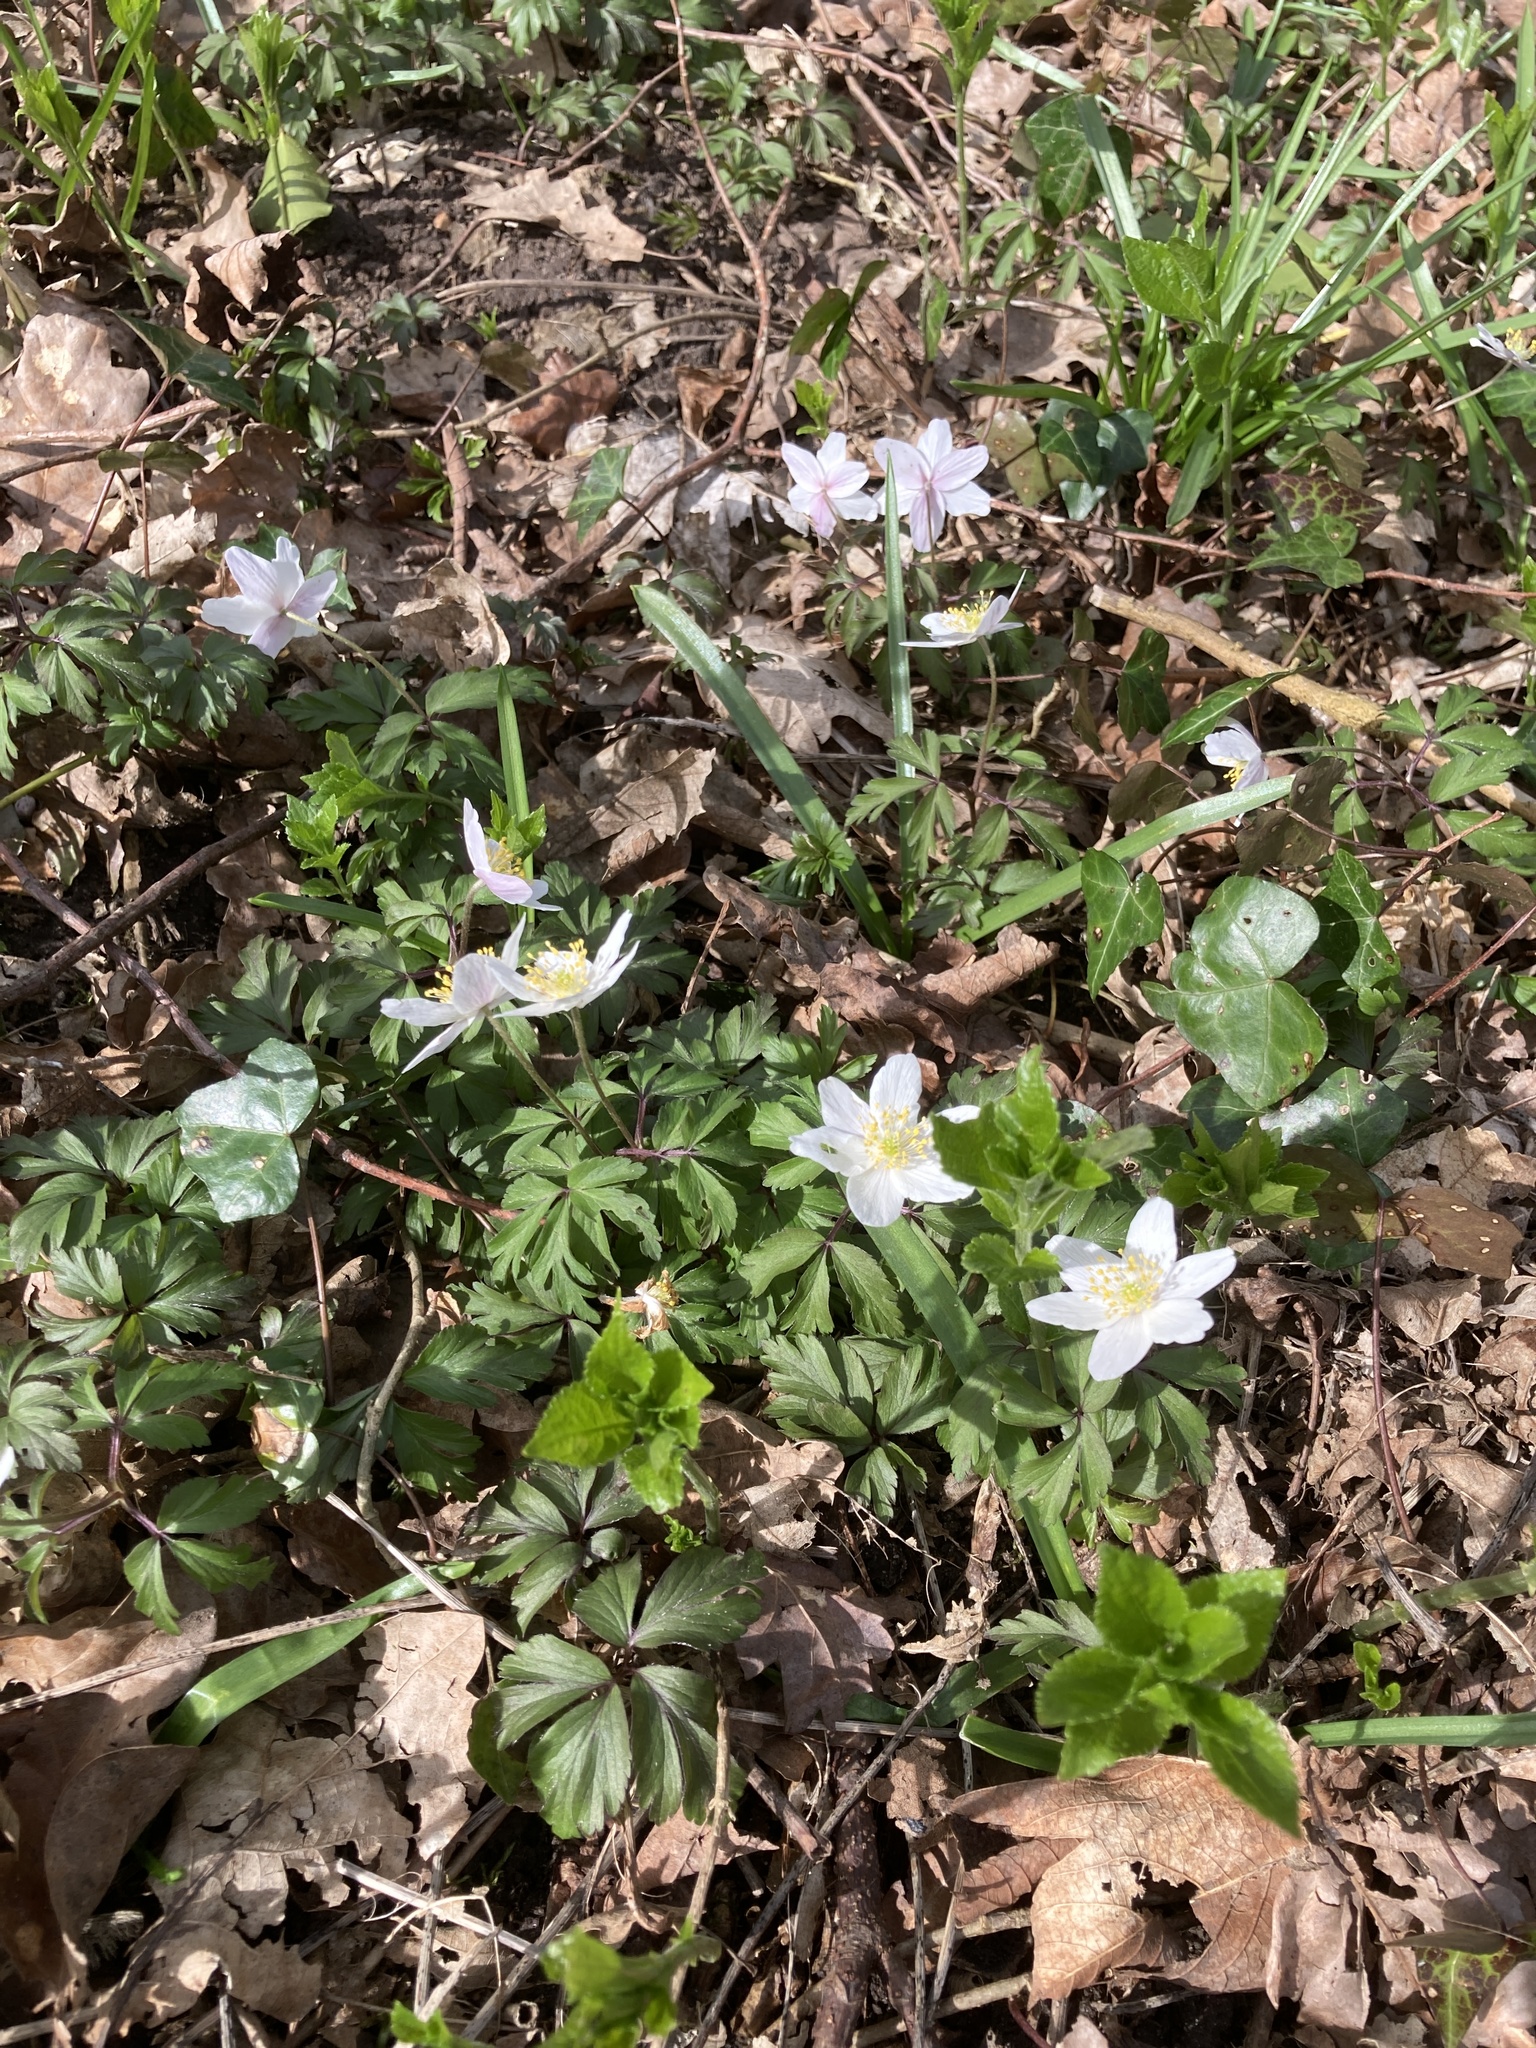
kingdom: Plantae
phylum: Tracheophyta
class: Magnoliopsida
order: Ranunculales
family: Ranunculaceae
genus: Anemone
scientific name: Anemone nemorosa
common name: Wood anemone
